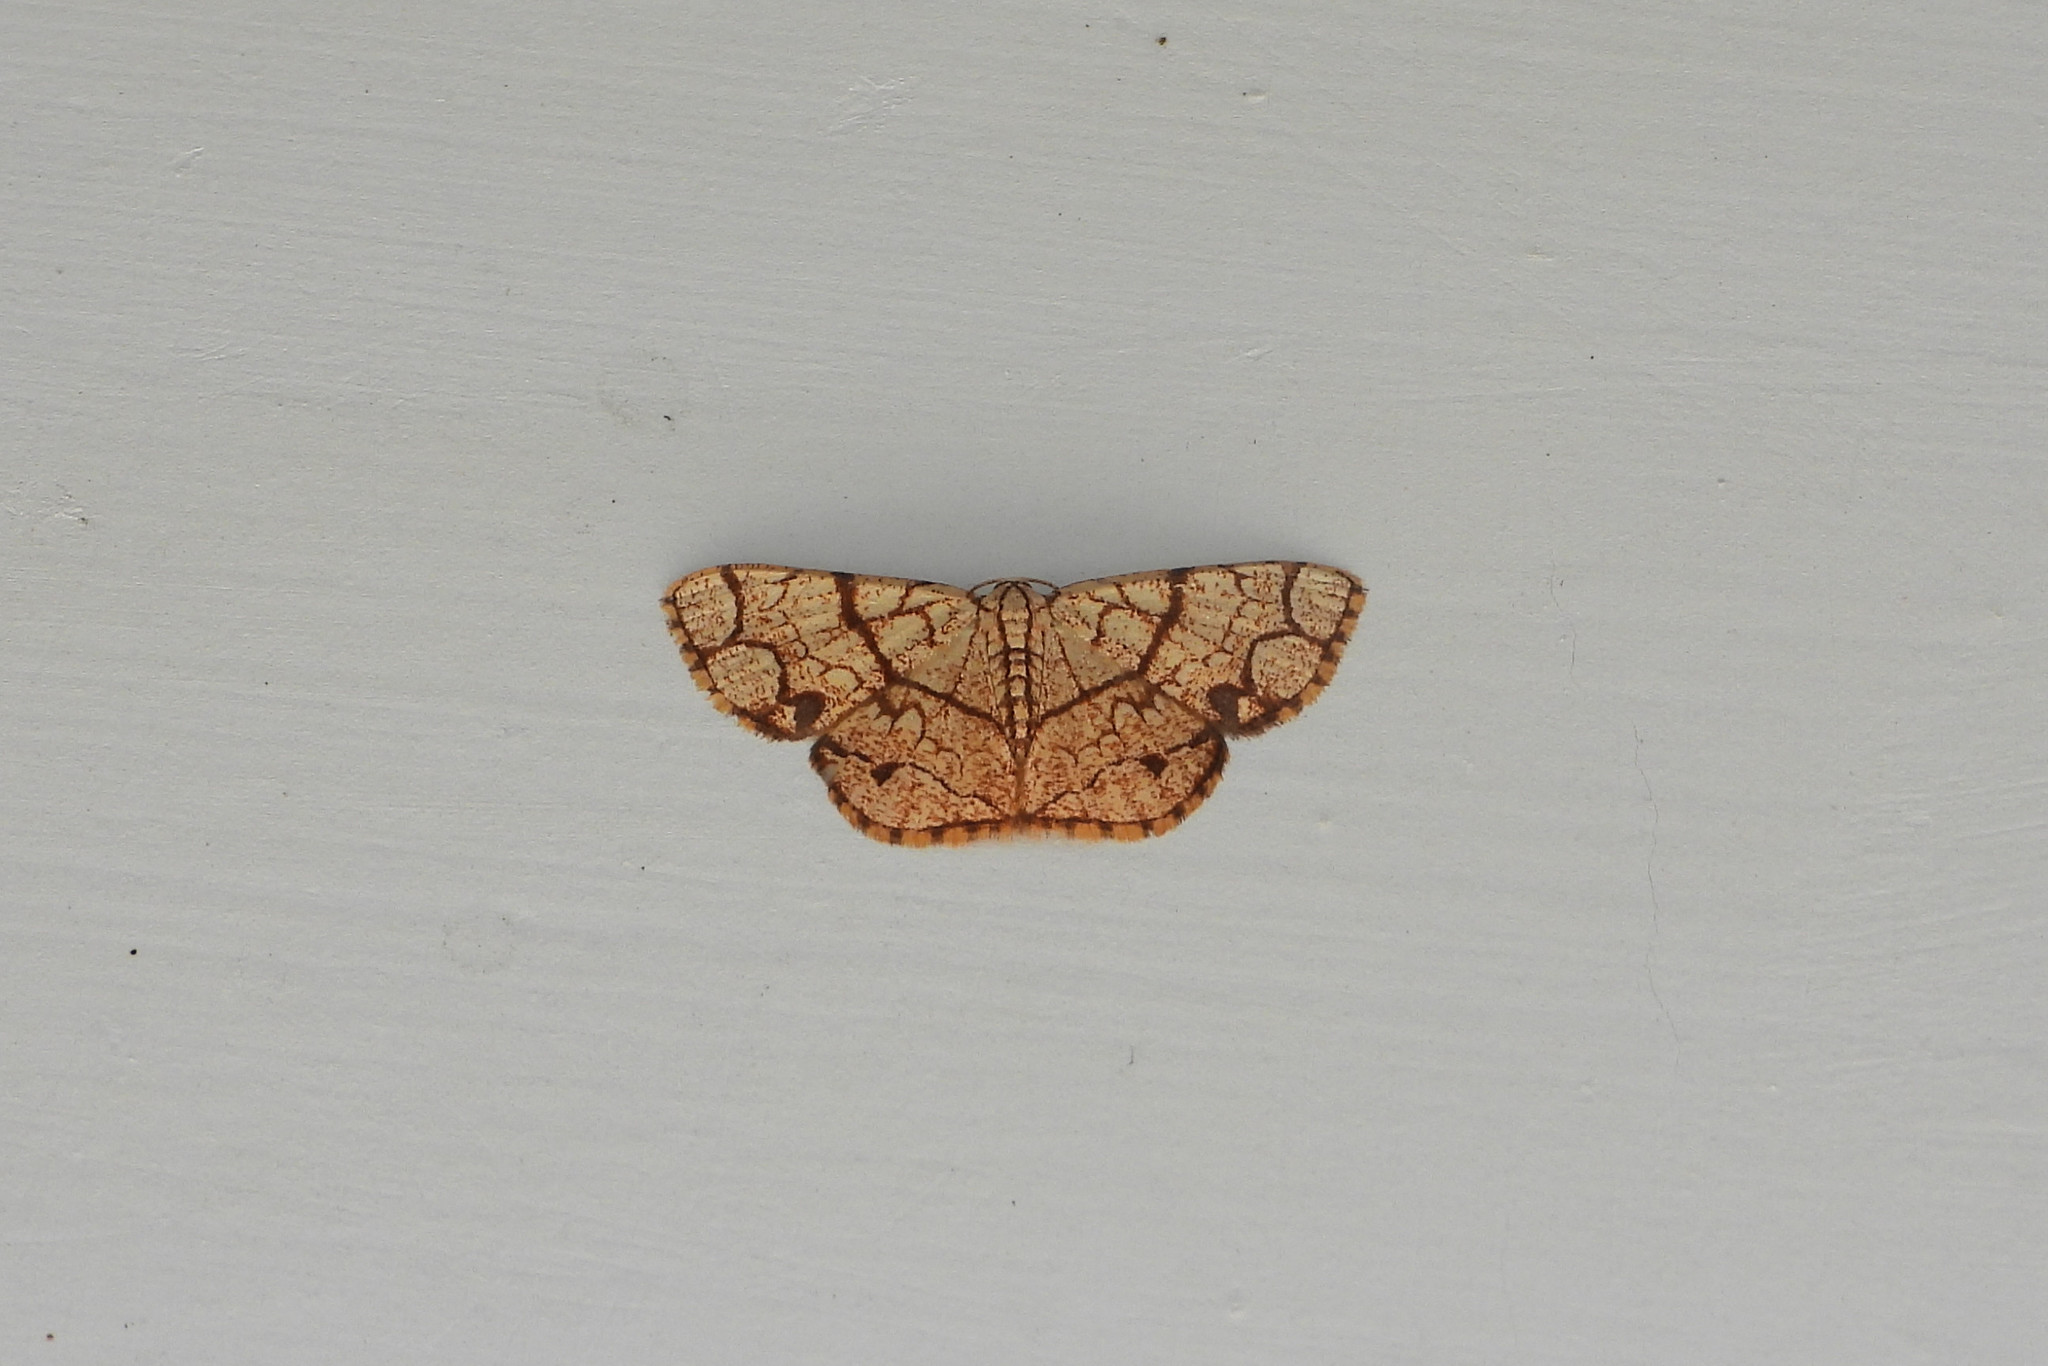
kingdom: Animalia
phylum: Arthropoda
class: Insecta
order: Lepidoptera
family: Geometridae
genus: Heterostegane
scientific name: Heterostegane subtessellata
